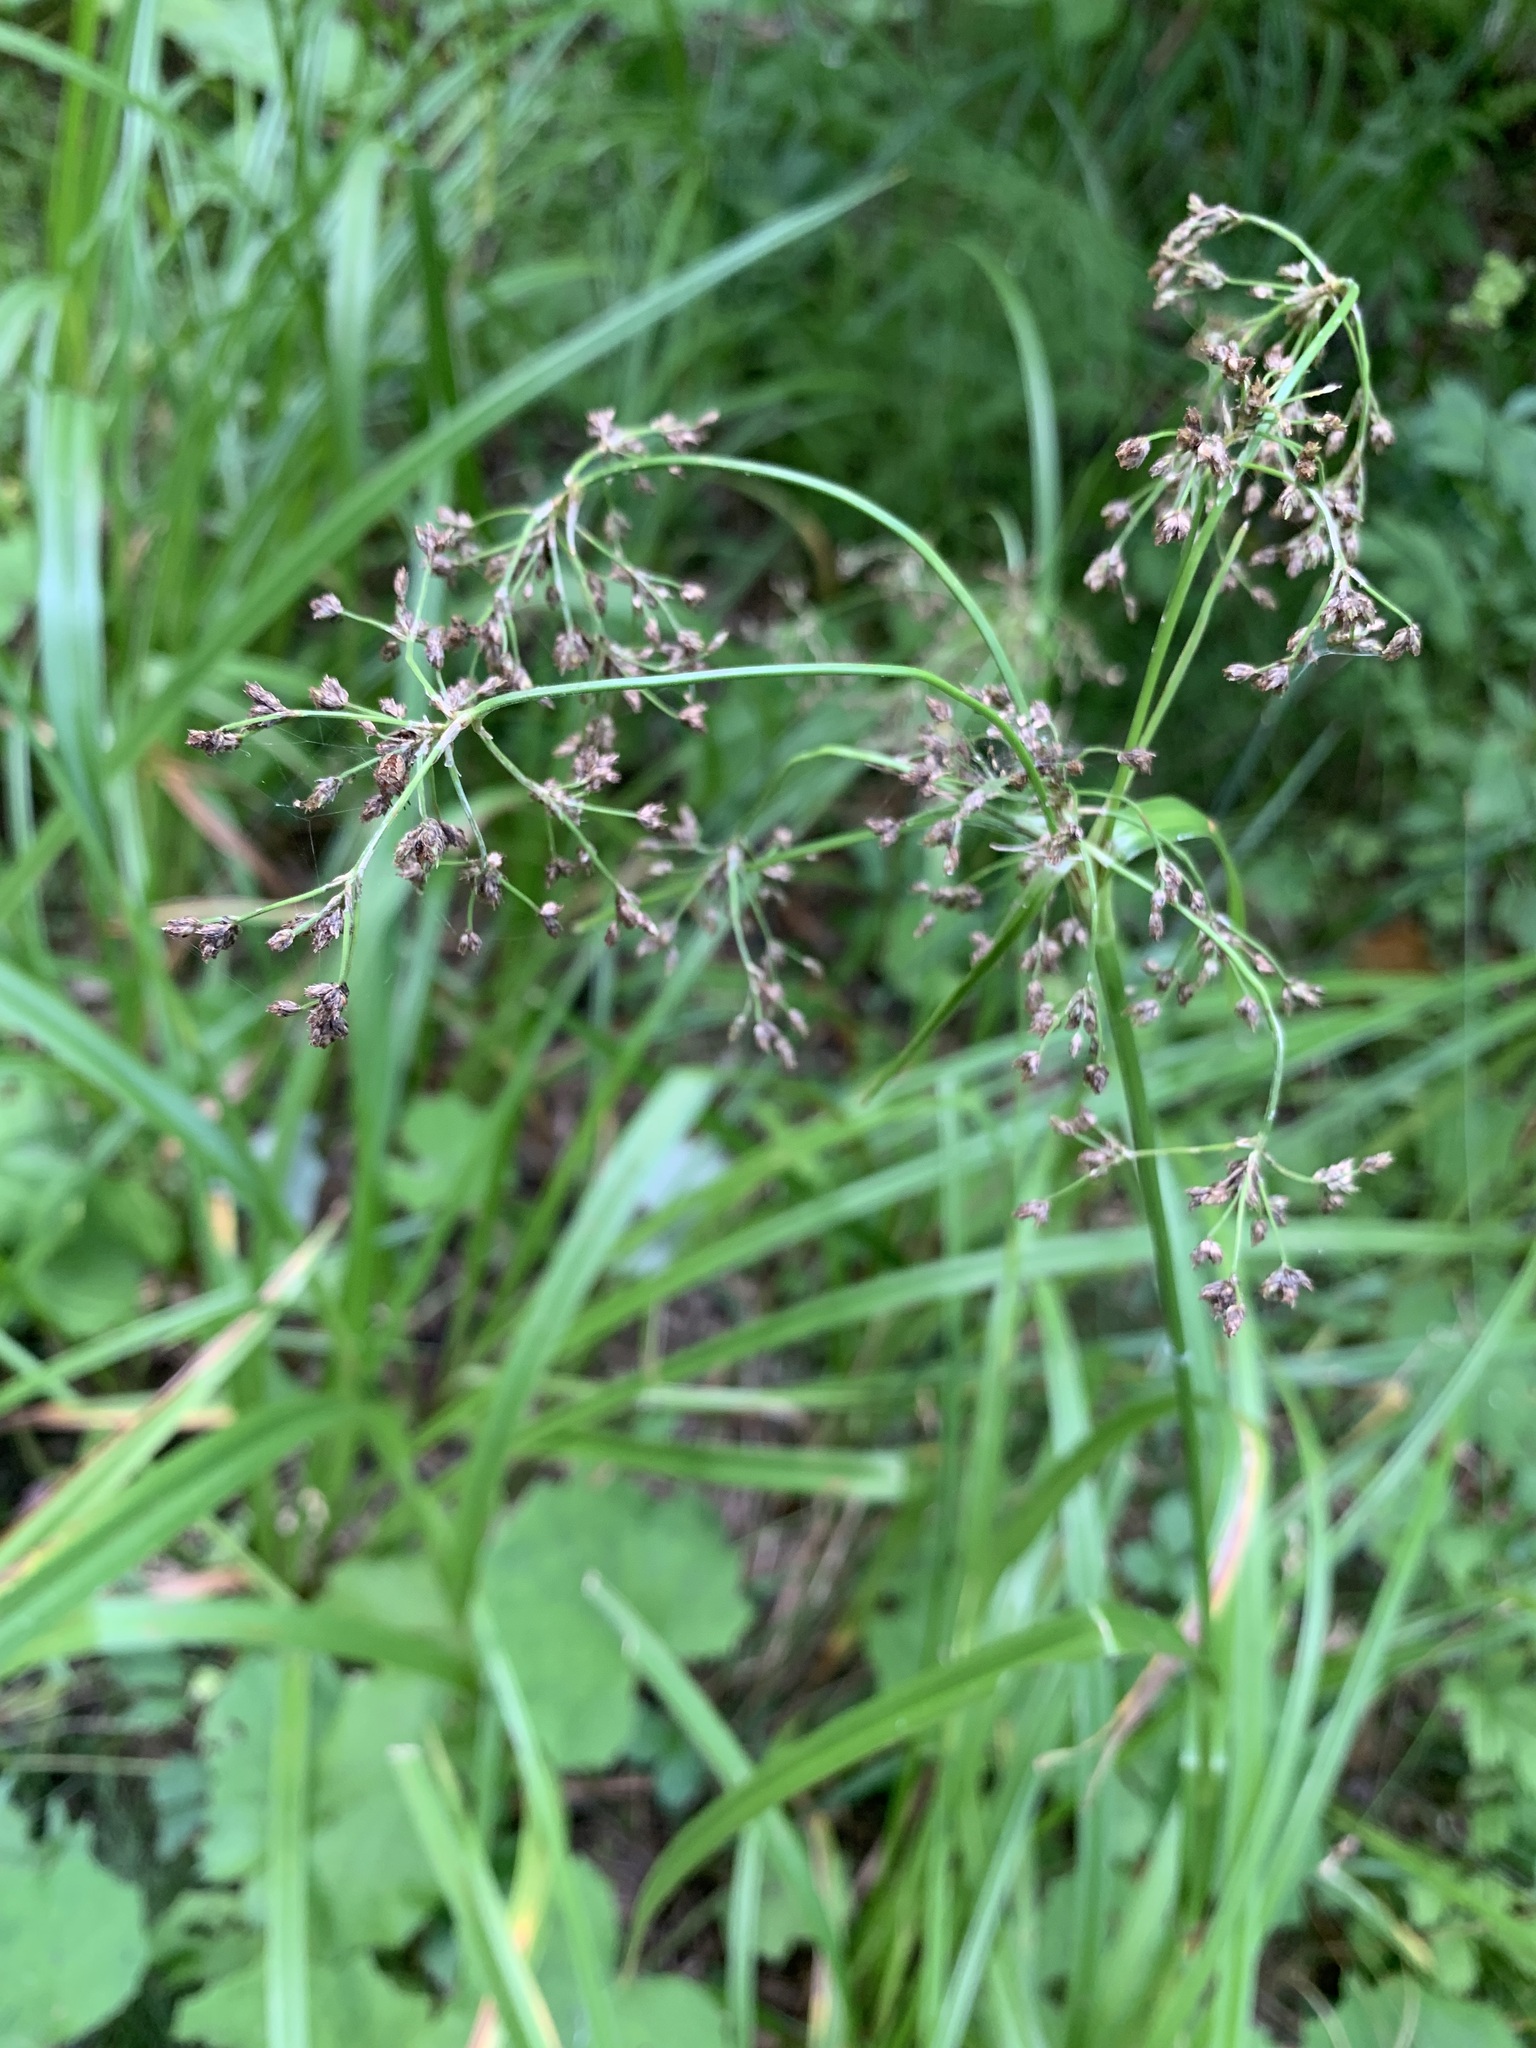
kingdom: Plantae
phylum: Tracheophyta
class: Liliopsida
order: Poales
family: Cyperaceae
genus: Scirpus
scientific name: Scirpus sylvaticus
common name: Wood club-rush
